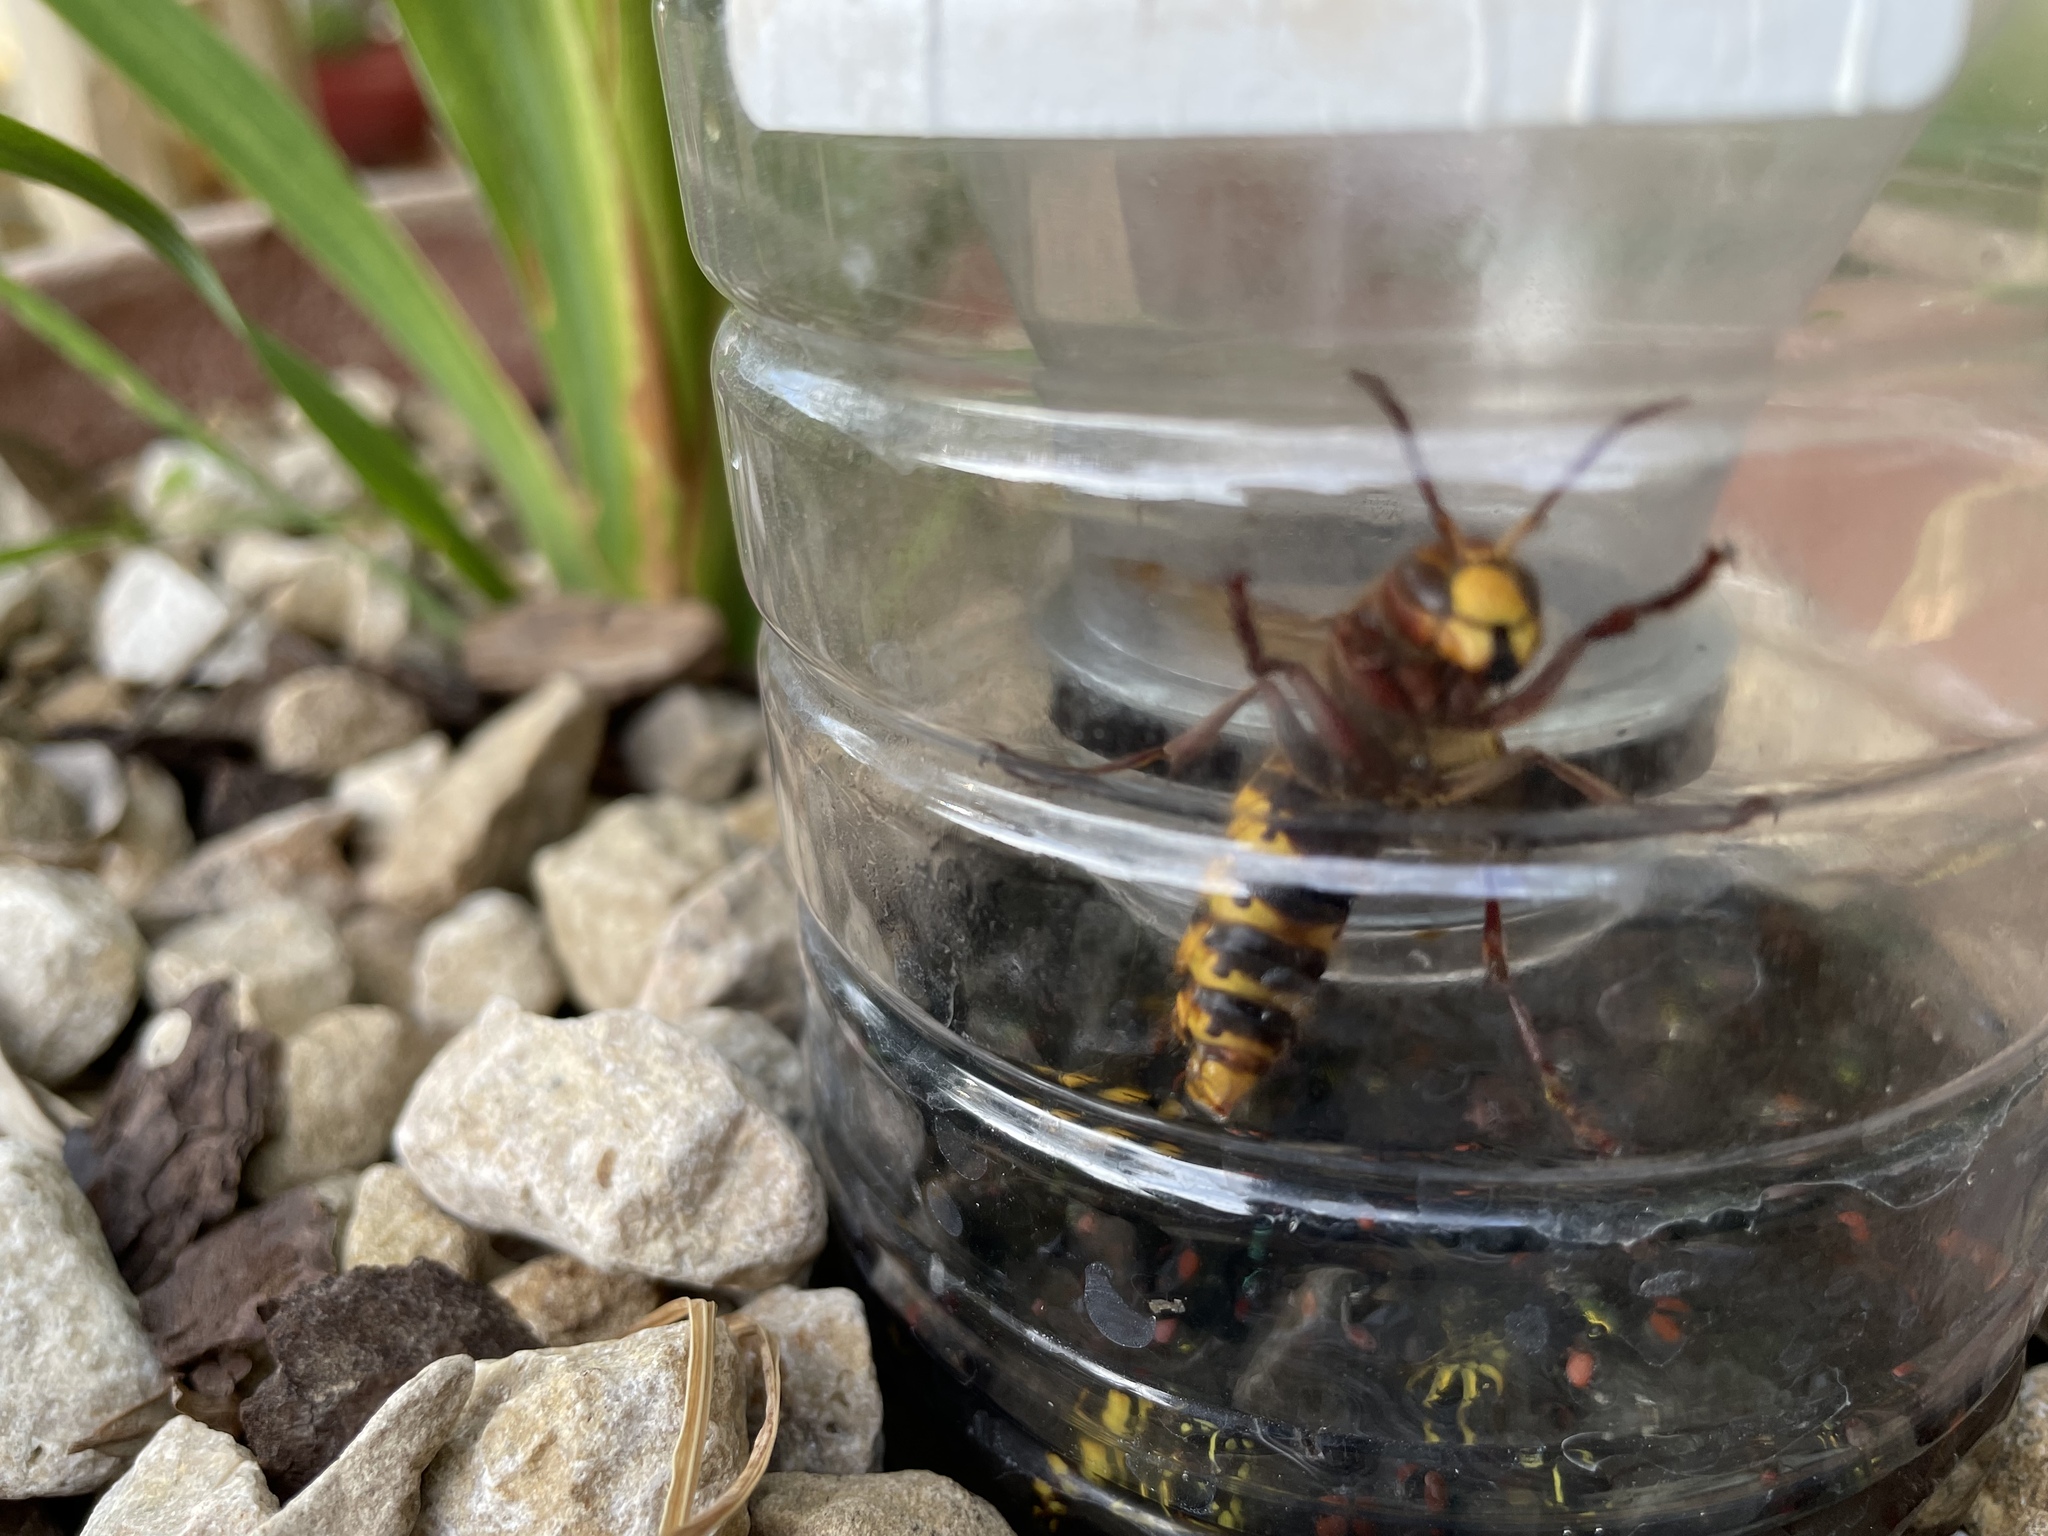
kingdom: Animalia
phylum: Arthropoda
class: Insecta
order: Hymenoptera
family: Vespidae
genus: Vespa
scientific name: Vespa crabro
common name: Hornet
